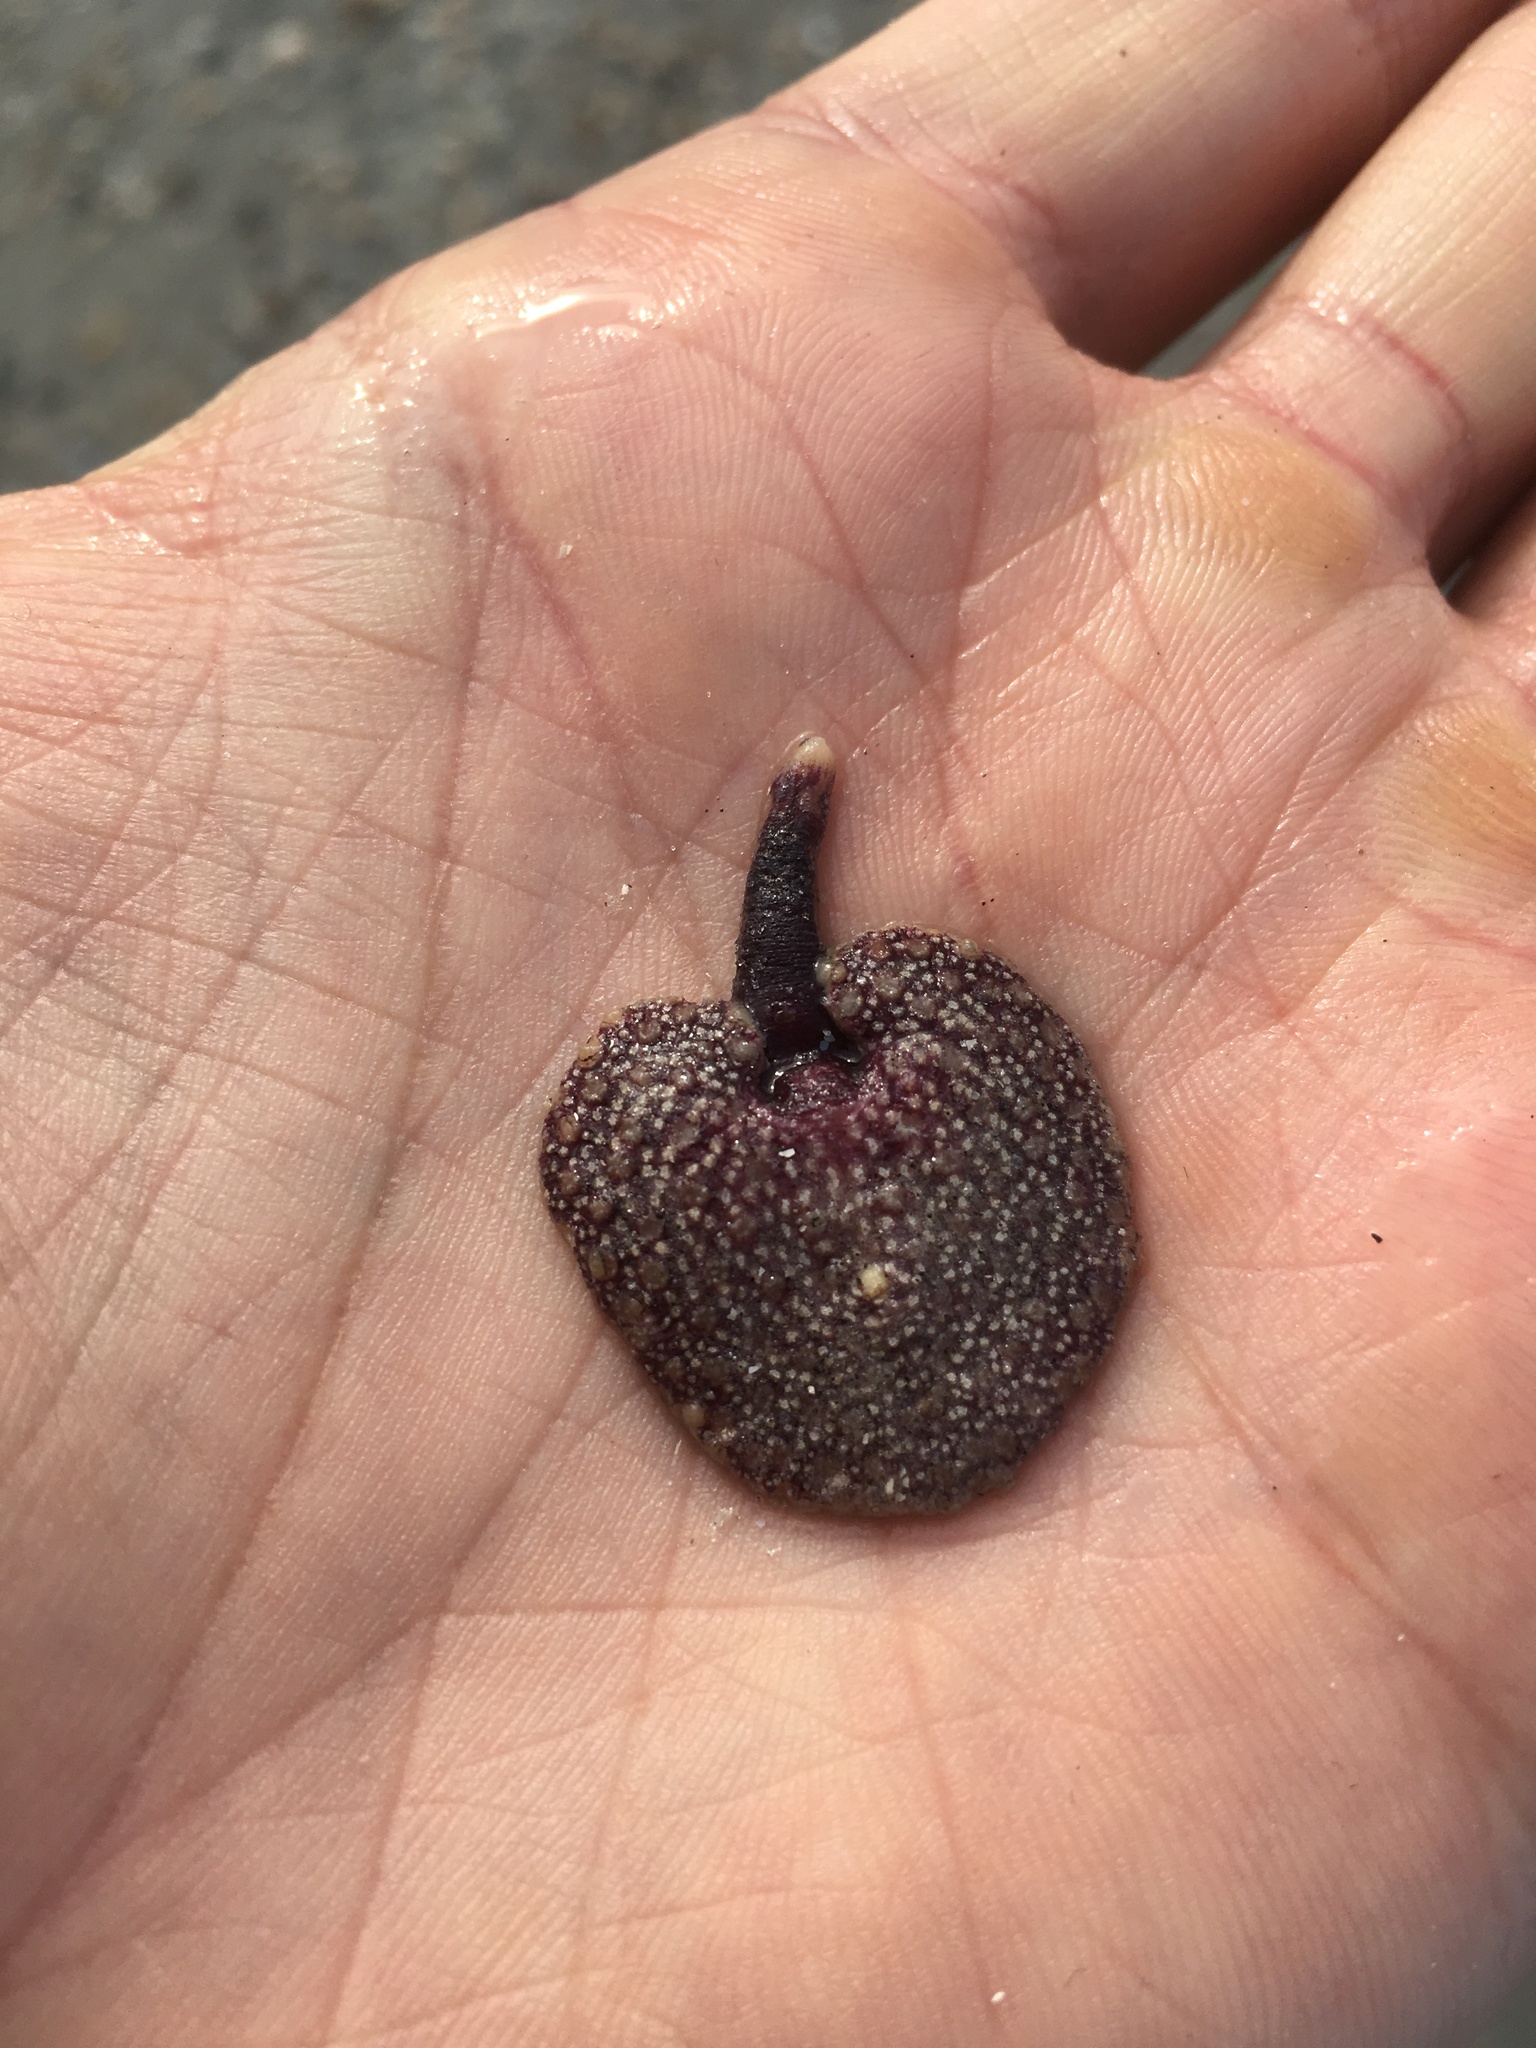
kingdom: Animalia
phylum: Cnidaria
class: Anthozoa
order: Scleralcyonacea
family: Renillidae
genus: Renilla
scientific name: Renilla reniformis
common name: Sea pansy
